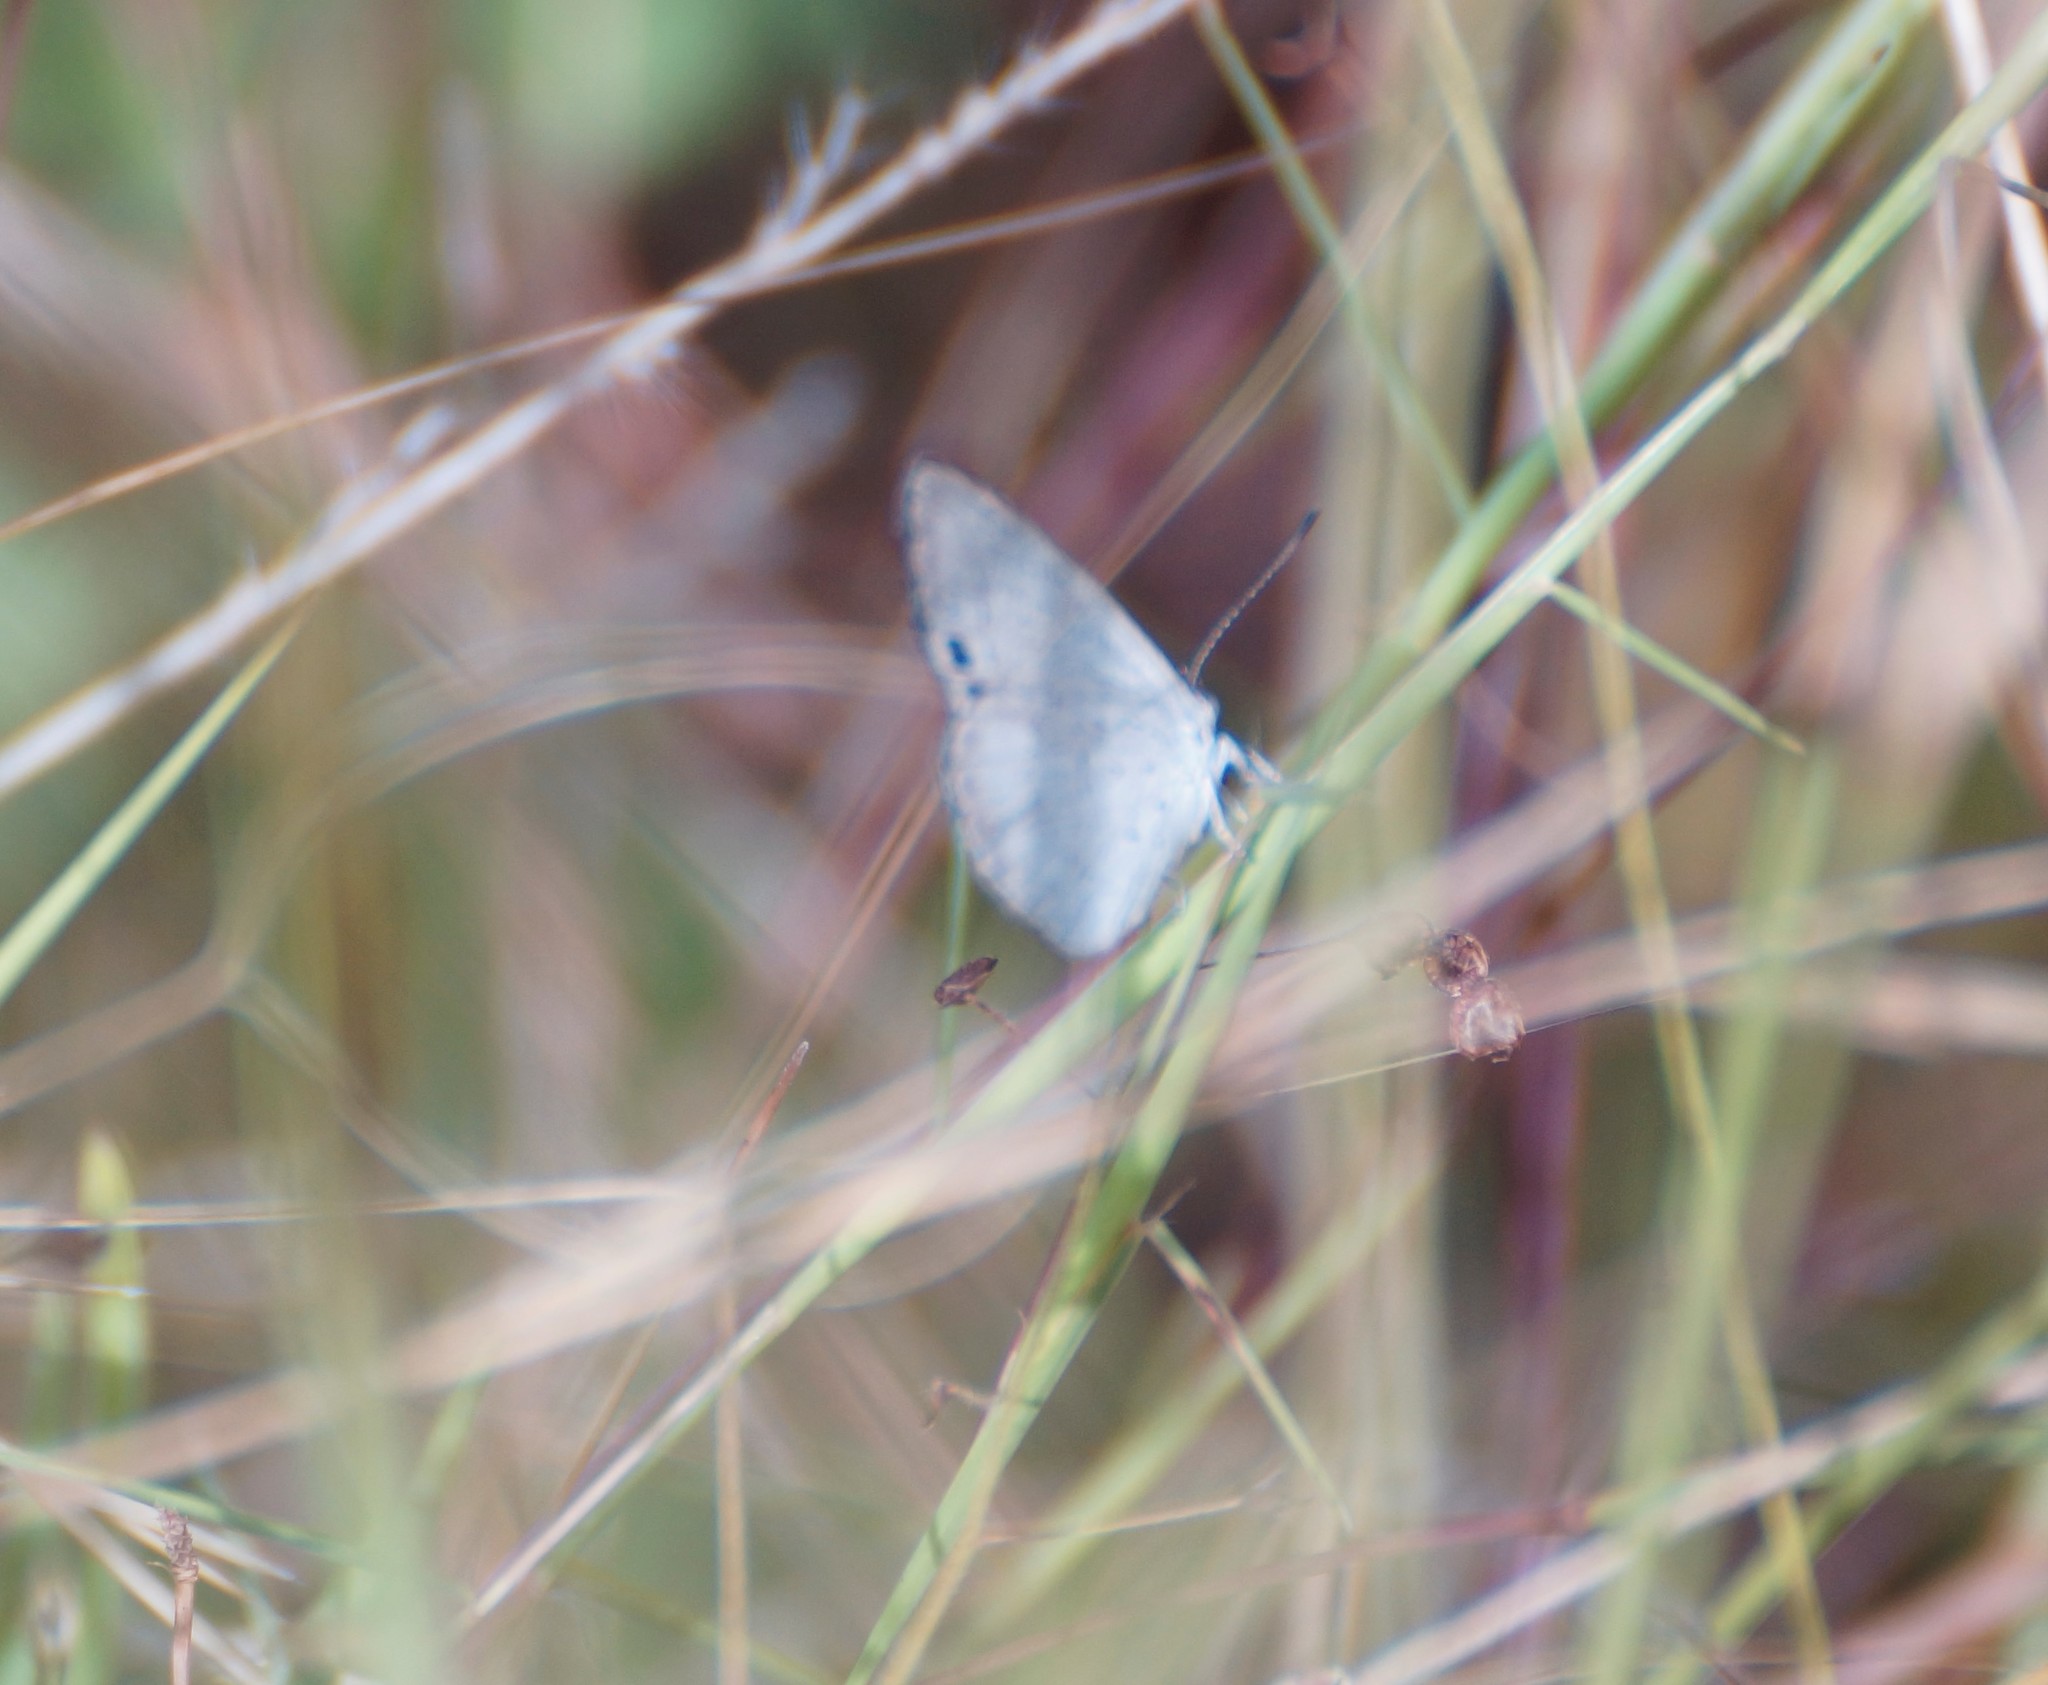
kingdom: Animalia
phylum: Arthropoda
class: Insecta
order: Lepidoptera
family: Lycaenidae
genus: Candalides
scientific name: Candalides
